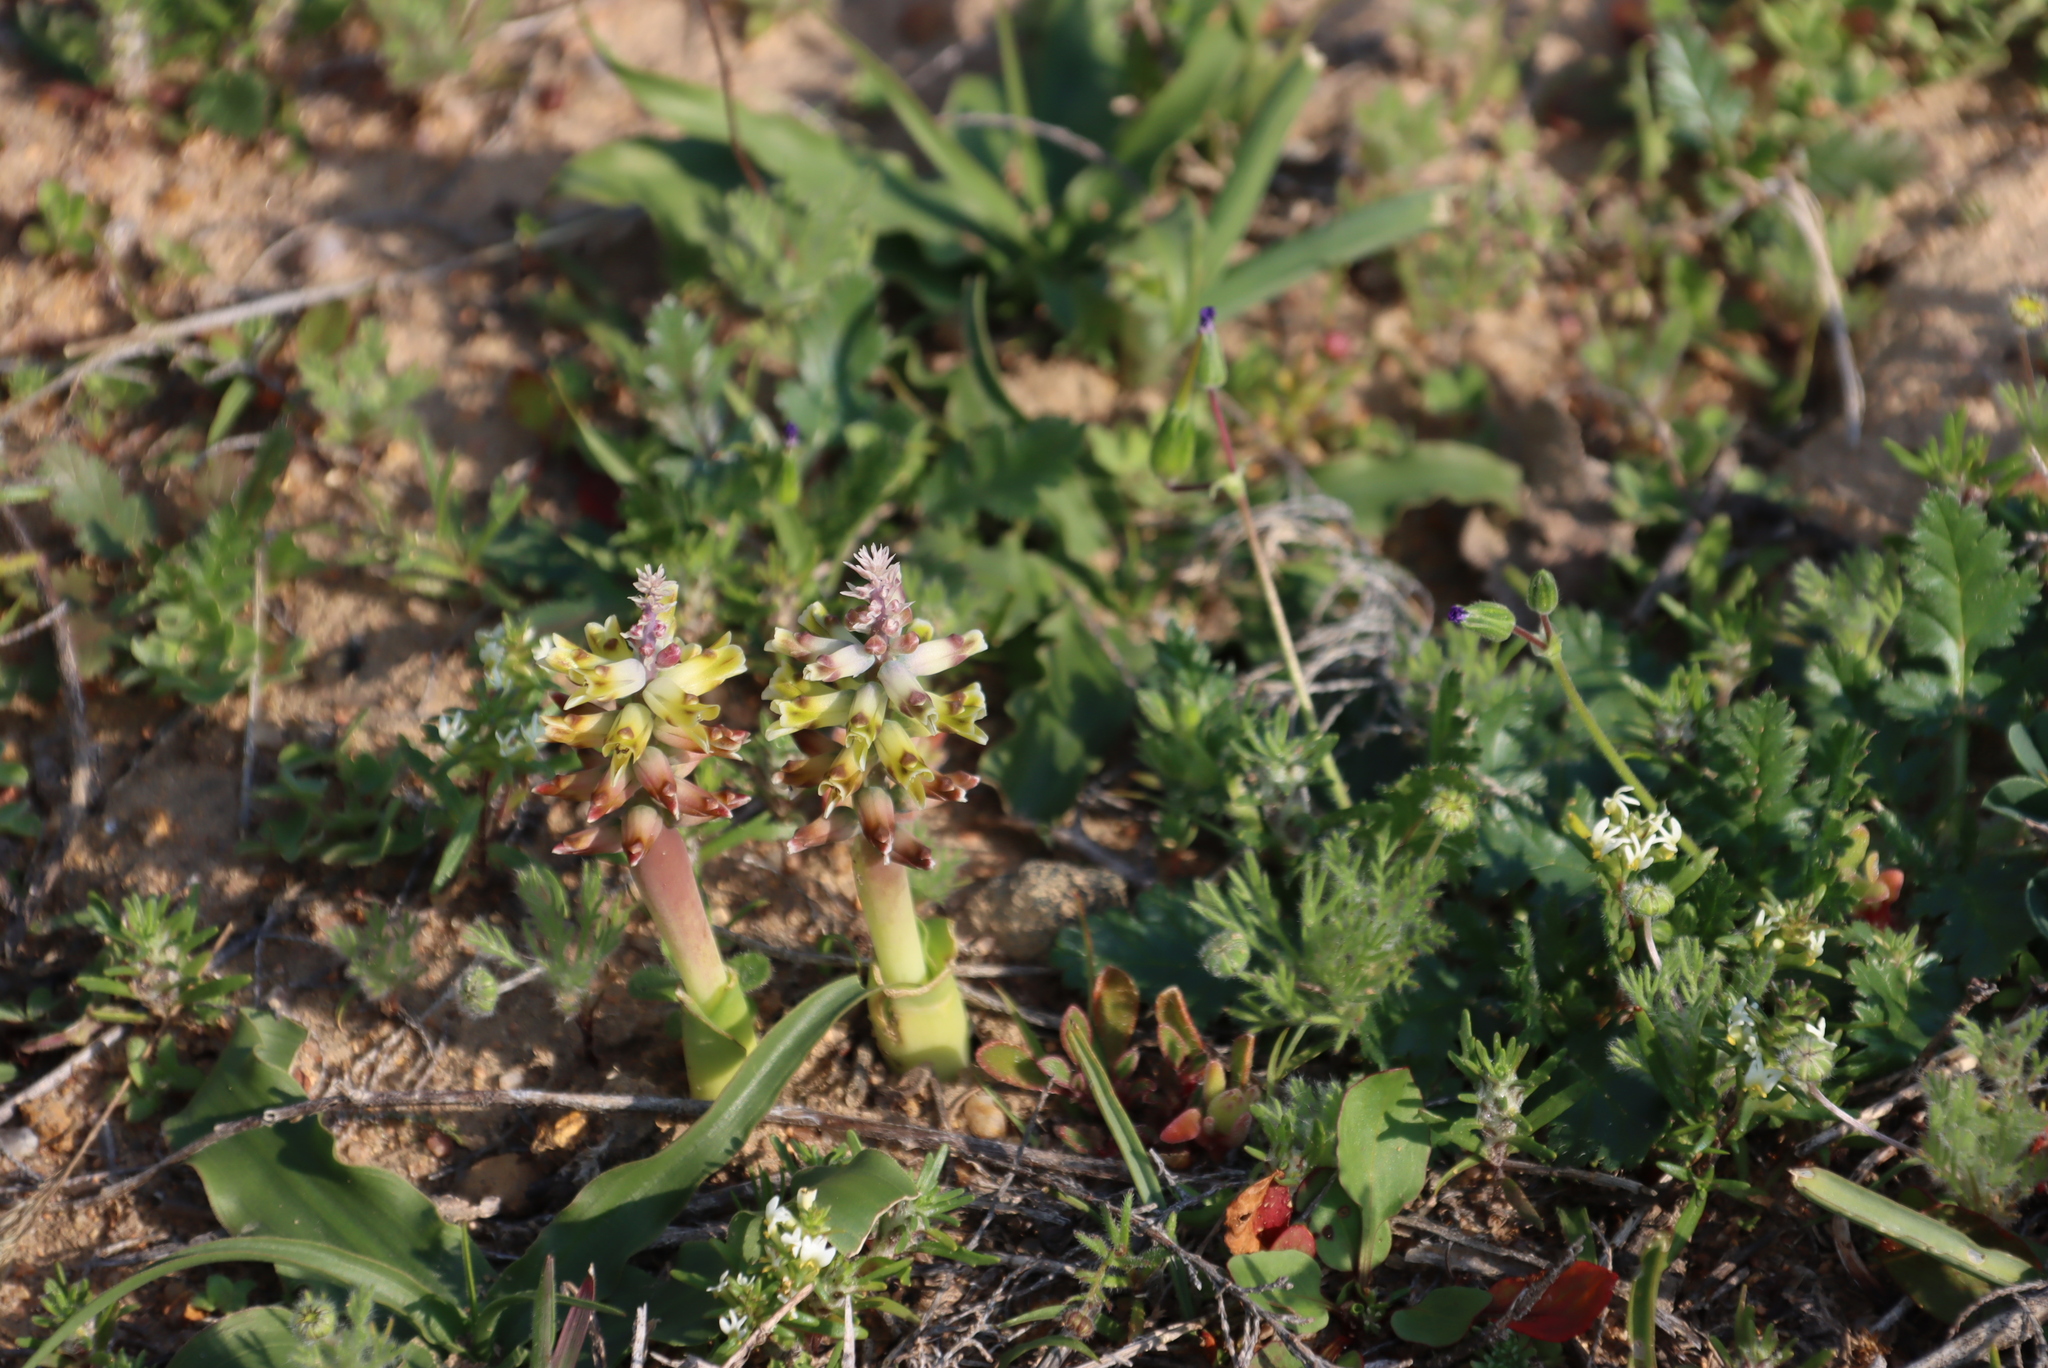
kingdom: Plantae
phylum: Tracheophyta
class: Liliopsida
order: Asparagales
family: Asparagaceae
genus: Lachenalia
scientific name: Lachenalia mutabilis
